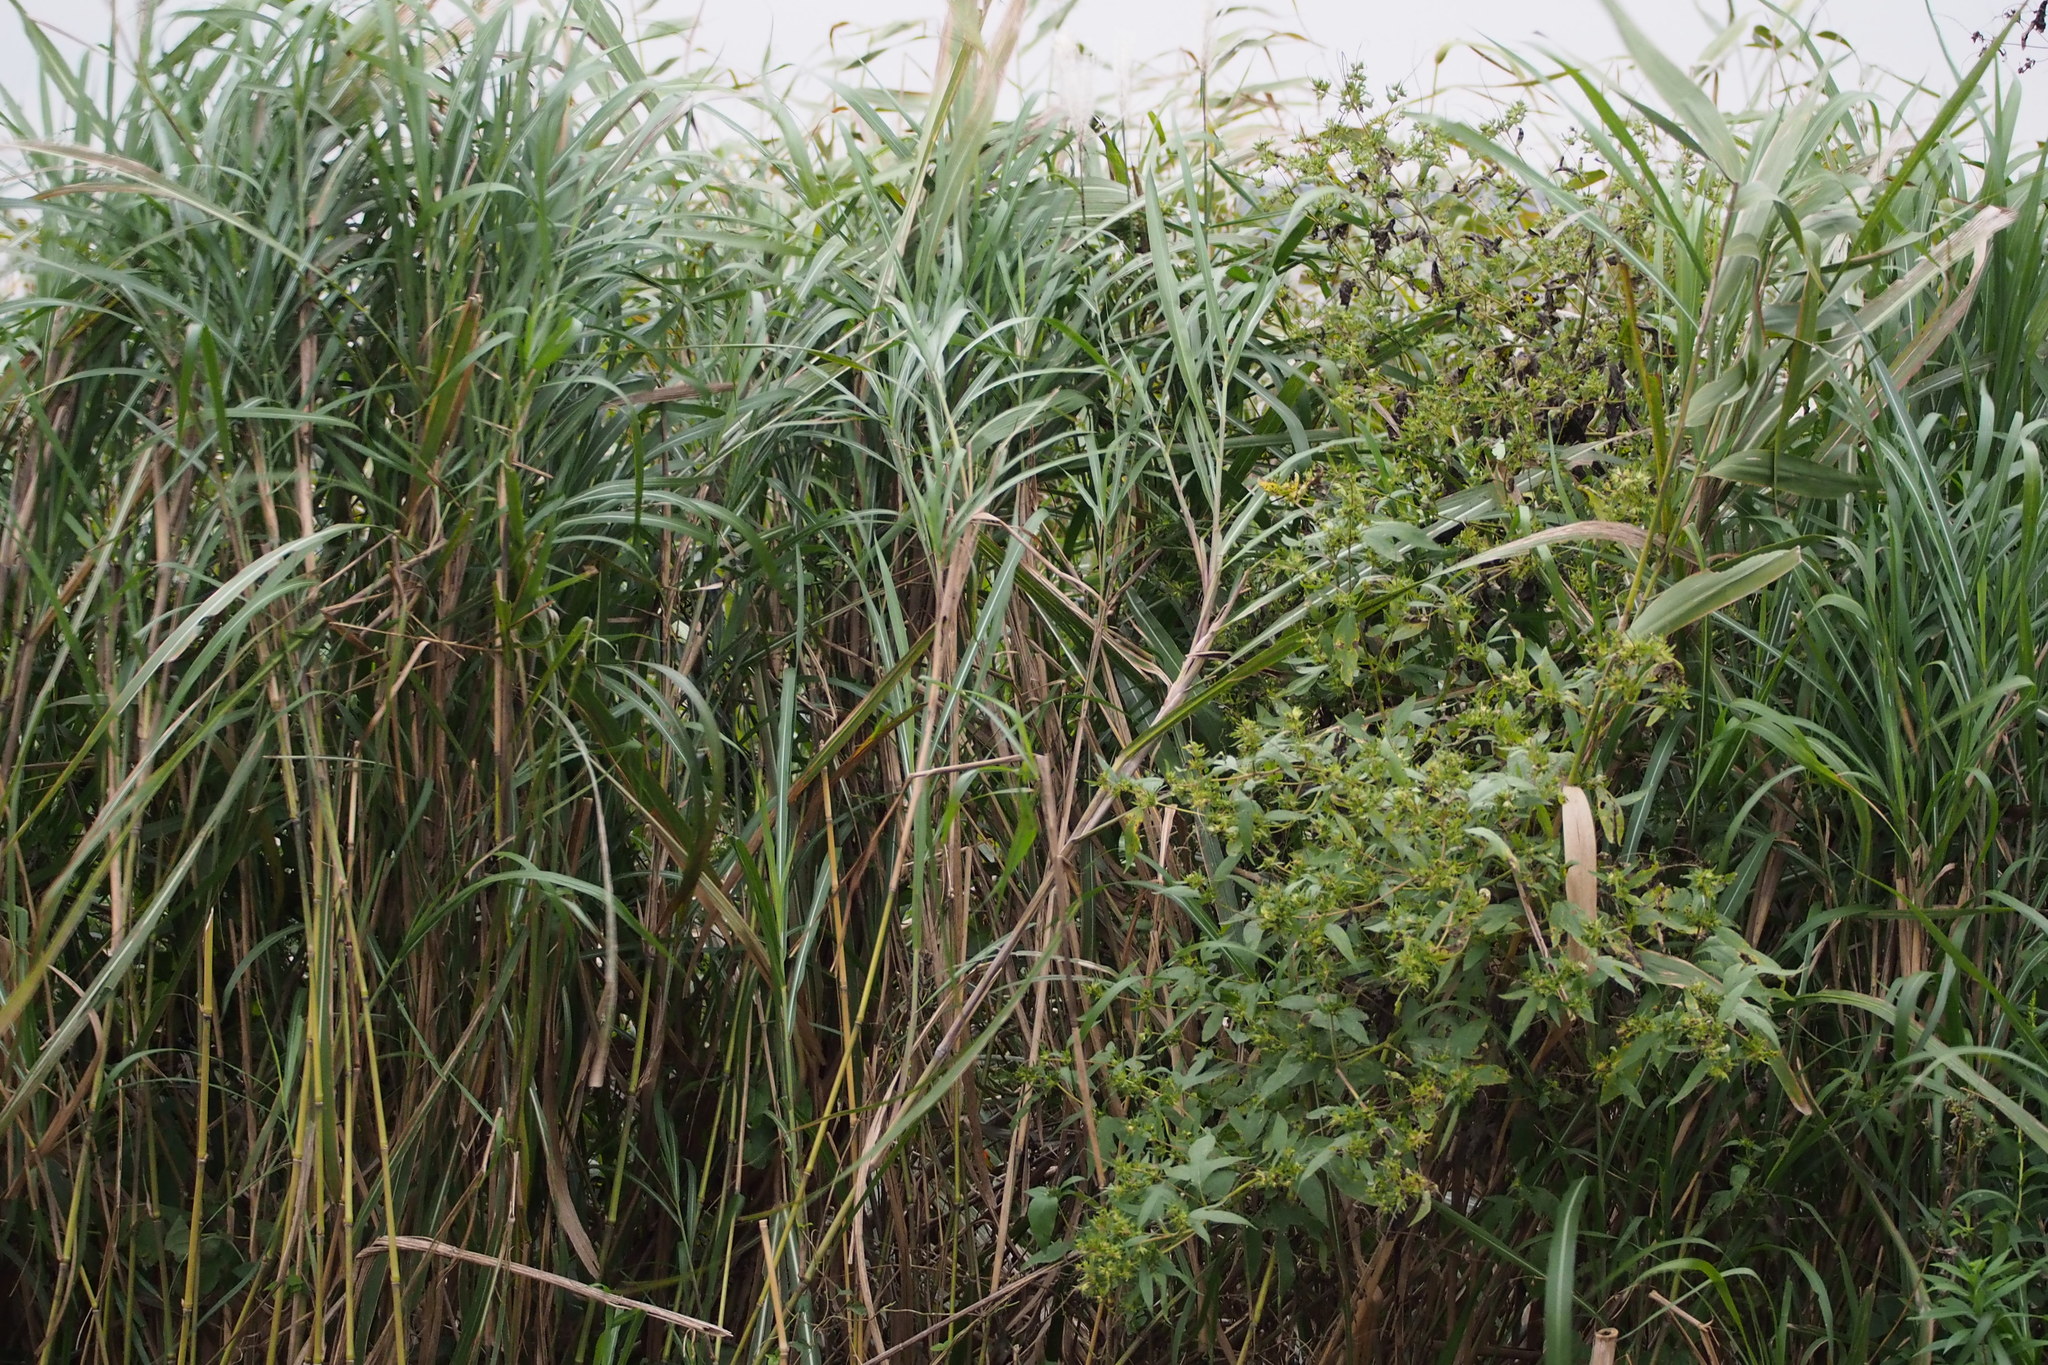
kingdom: Plantae
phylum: Tracheophyta
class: Liliopsida
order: Poales
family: Poaceae
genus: Phragmites
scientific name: Phragmites australis
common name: Common reed
